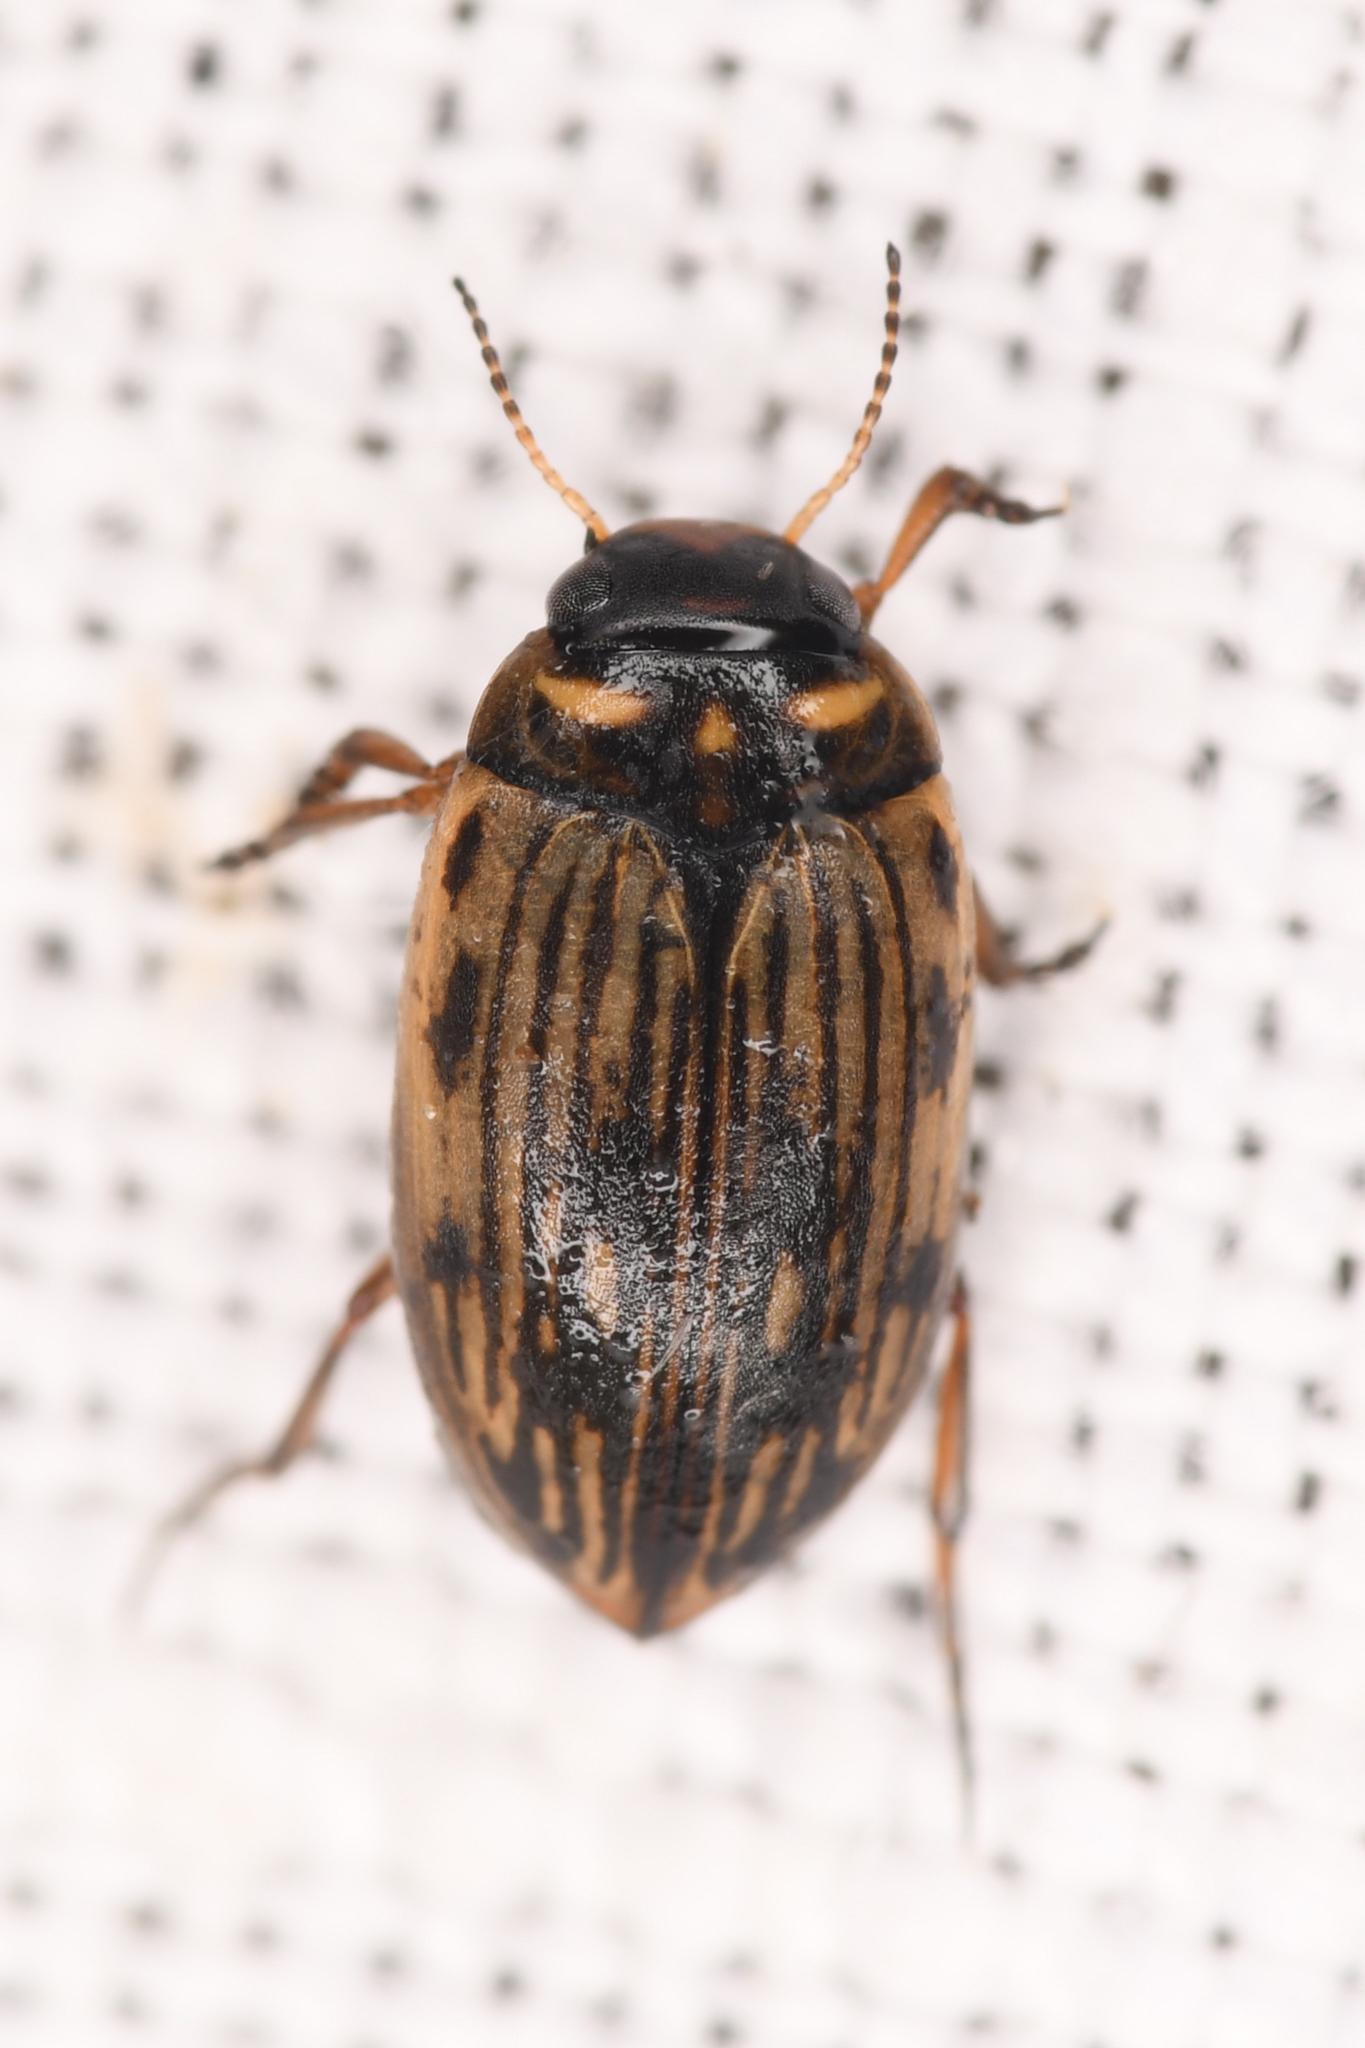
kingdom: Animalia
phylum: Arthropoda
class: Insecta
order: Coleoptera
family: Dytiscidae
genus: Boreonectes
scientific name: Boreonectes
